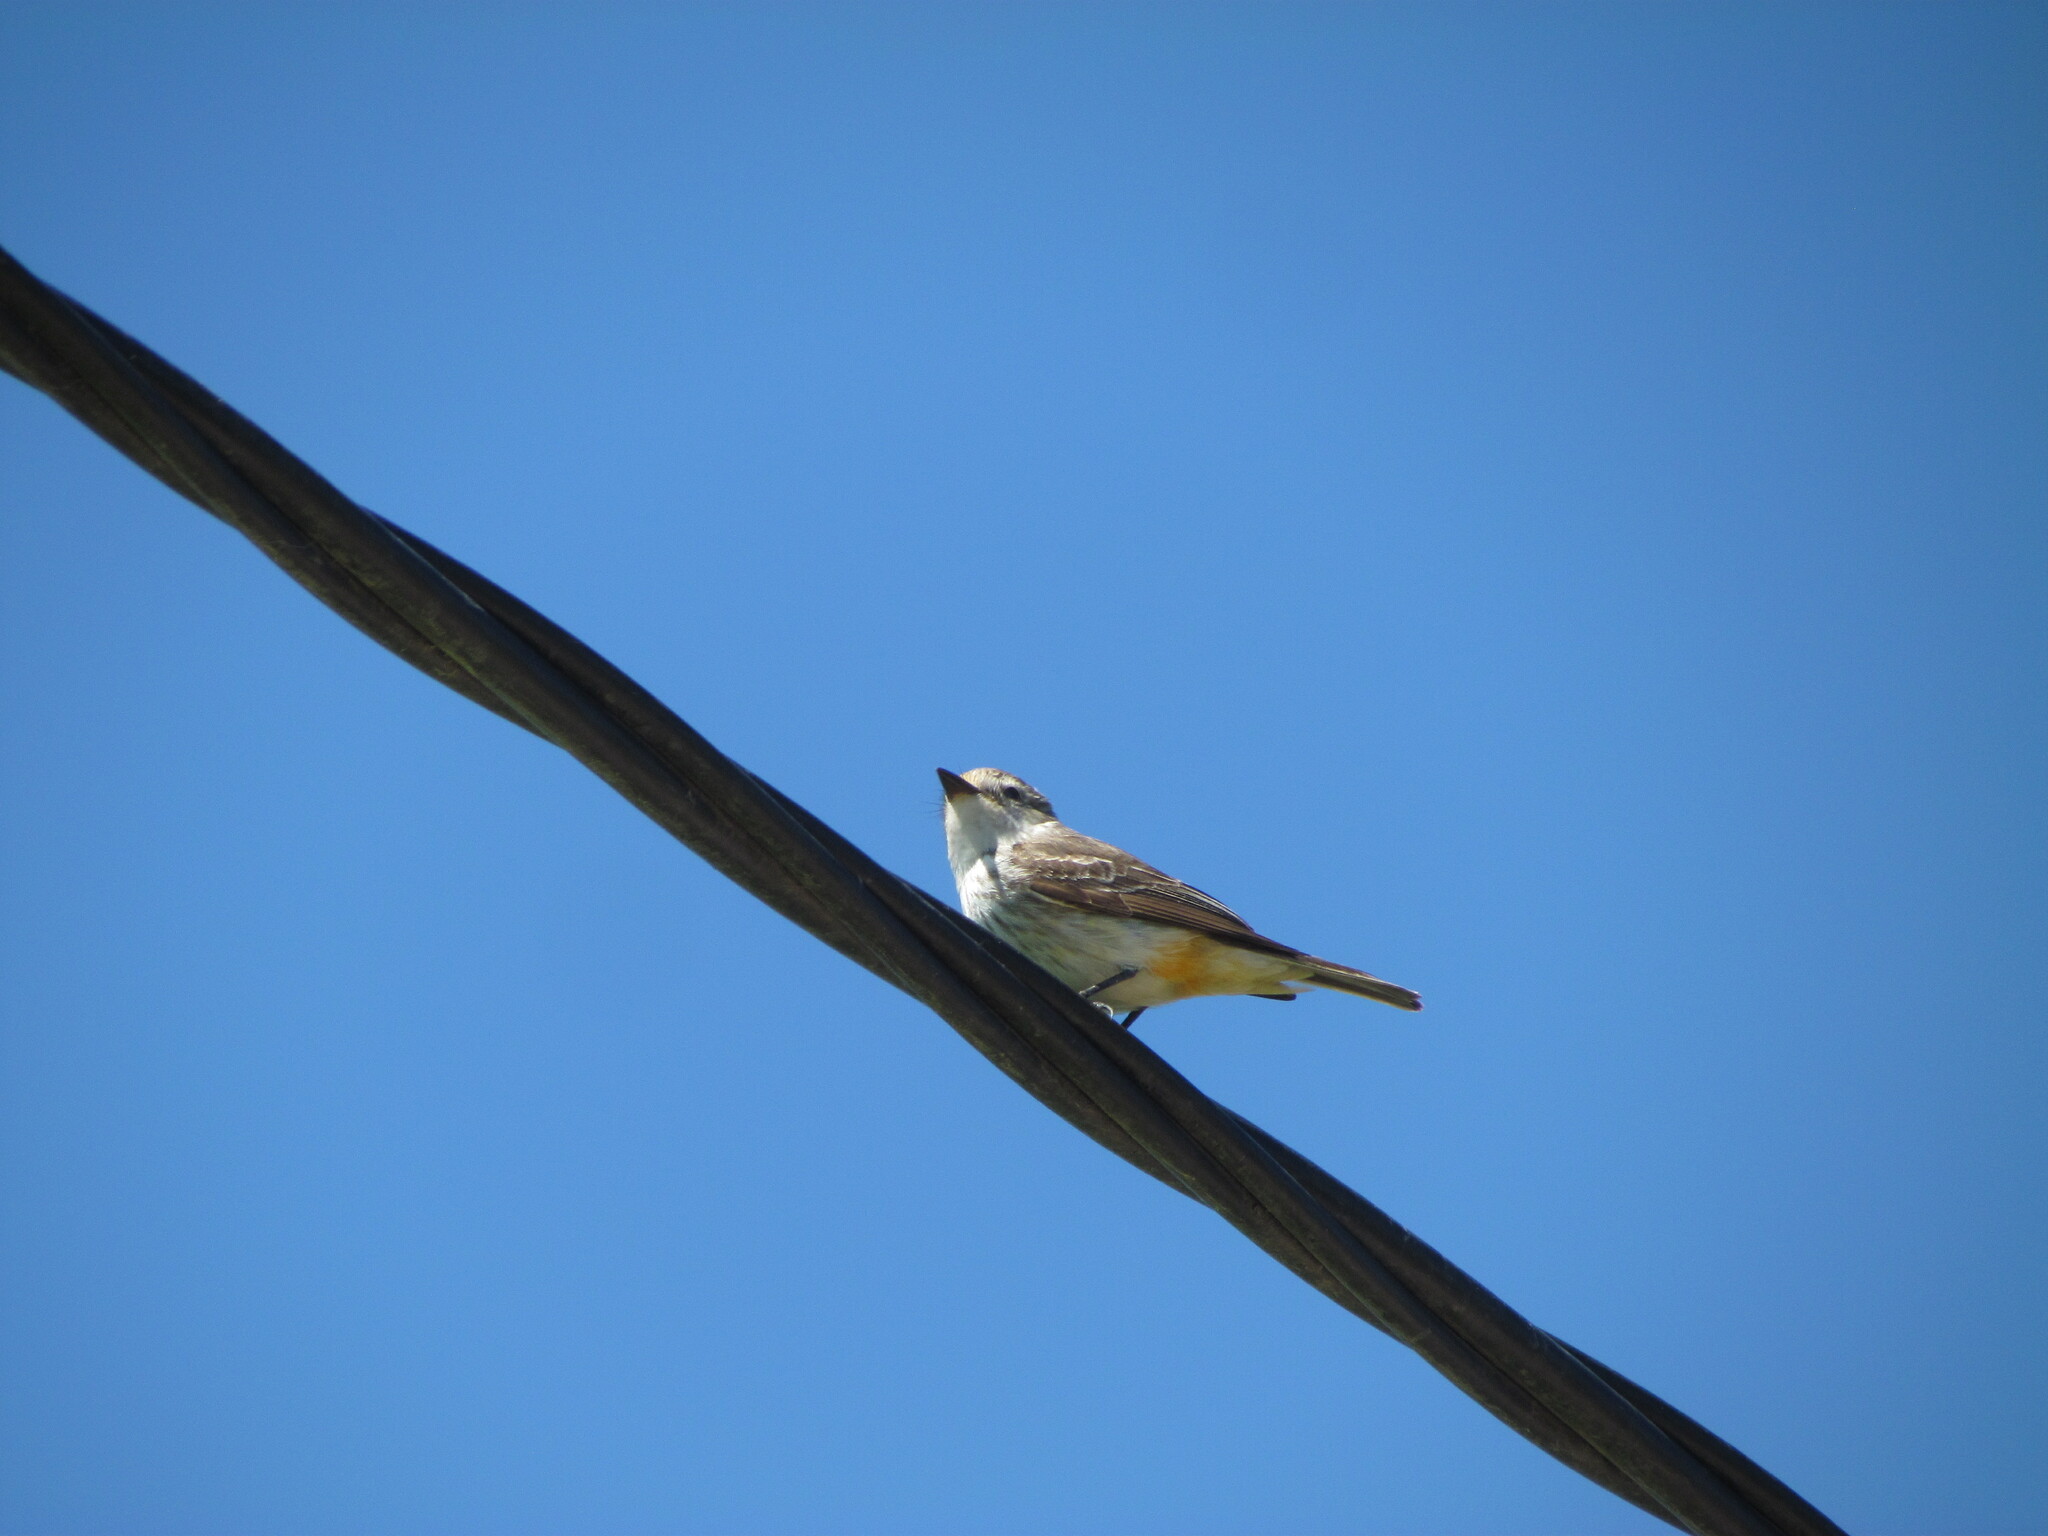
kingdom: Animalia
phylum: Chordata
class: Aves
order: Passeriformes
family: Tyrannidae
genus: Pyrocephalus
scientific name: Pyrocephalus rubinus
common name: Vermilion flycatcher
